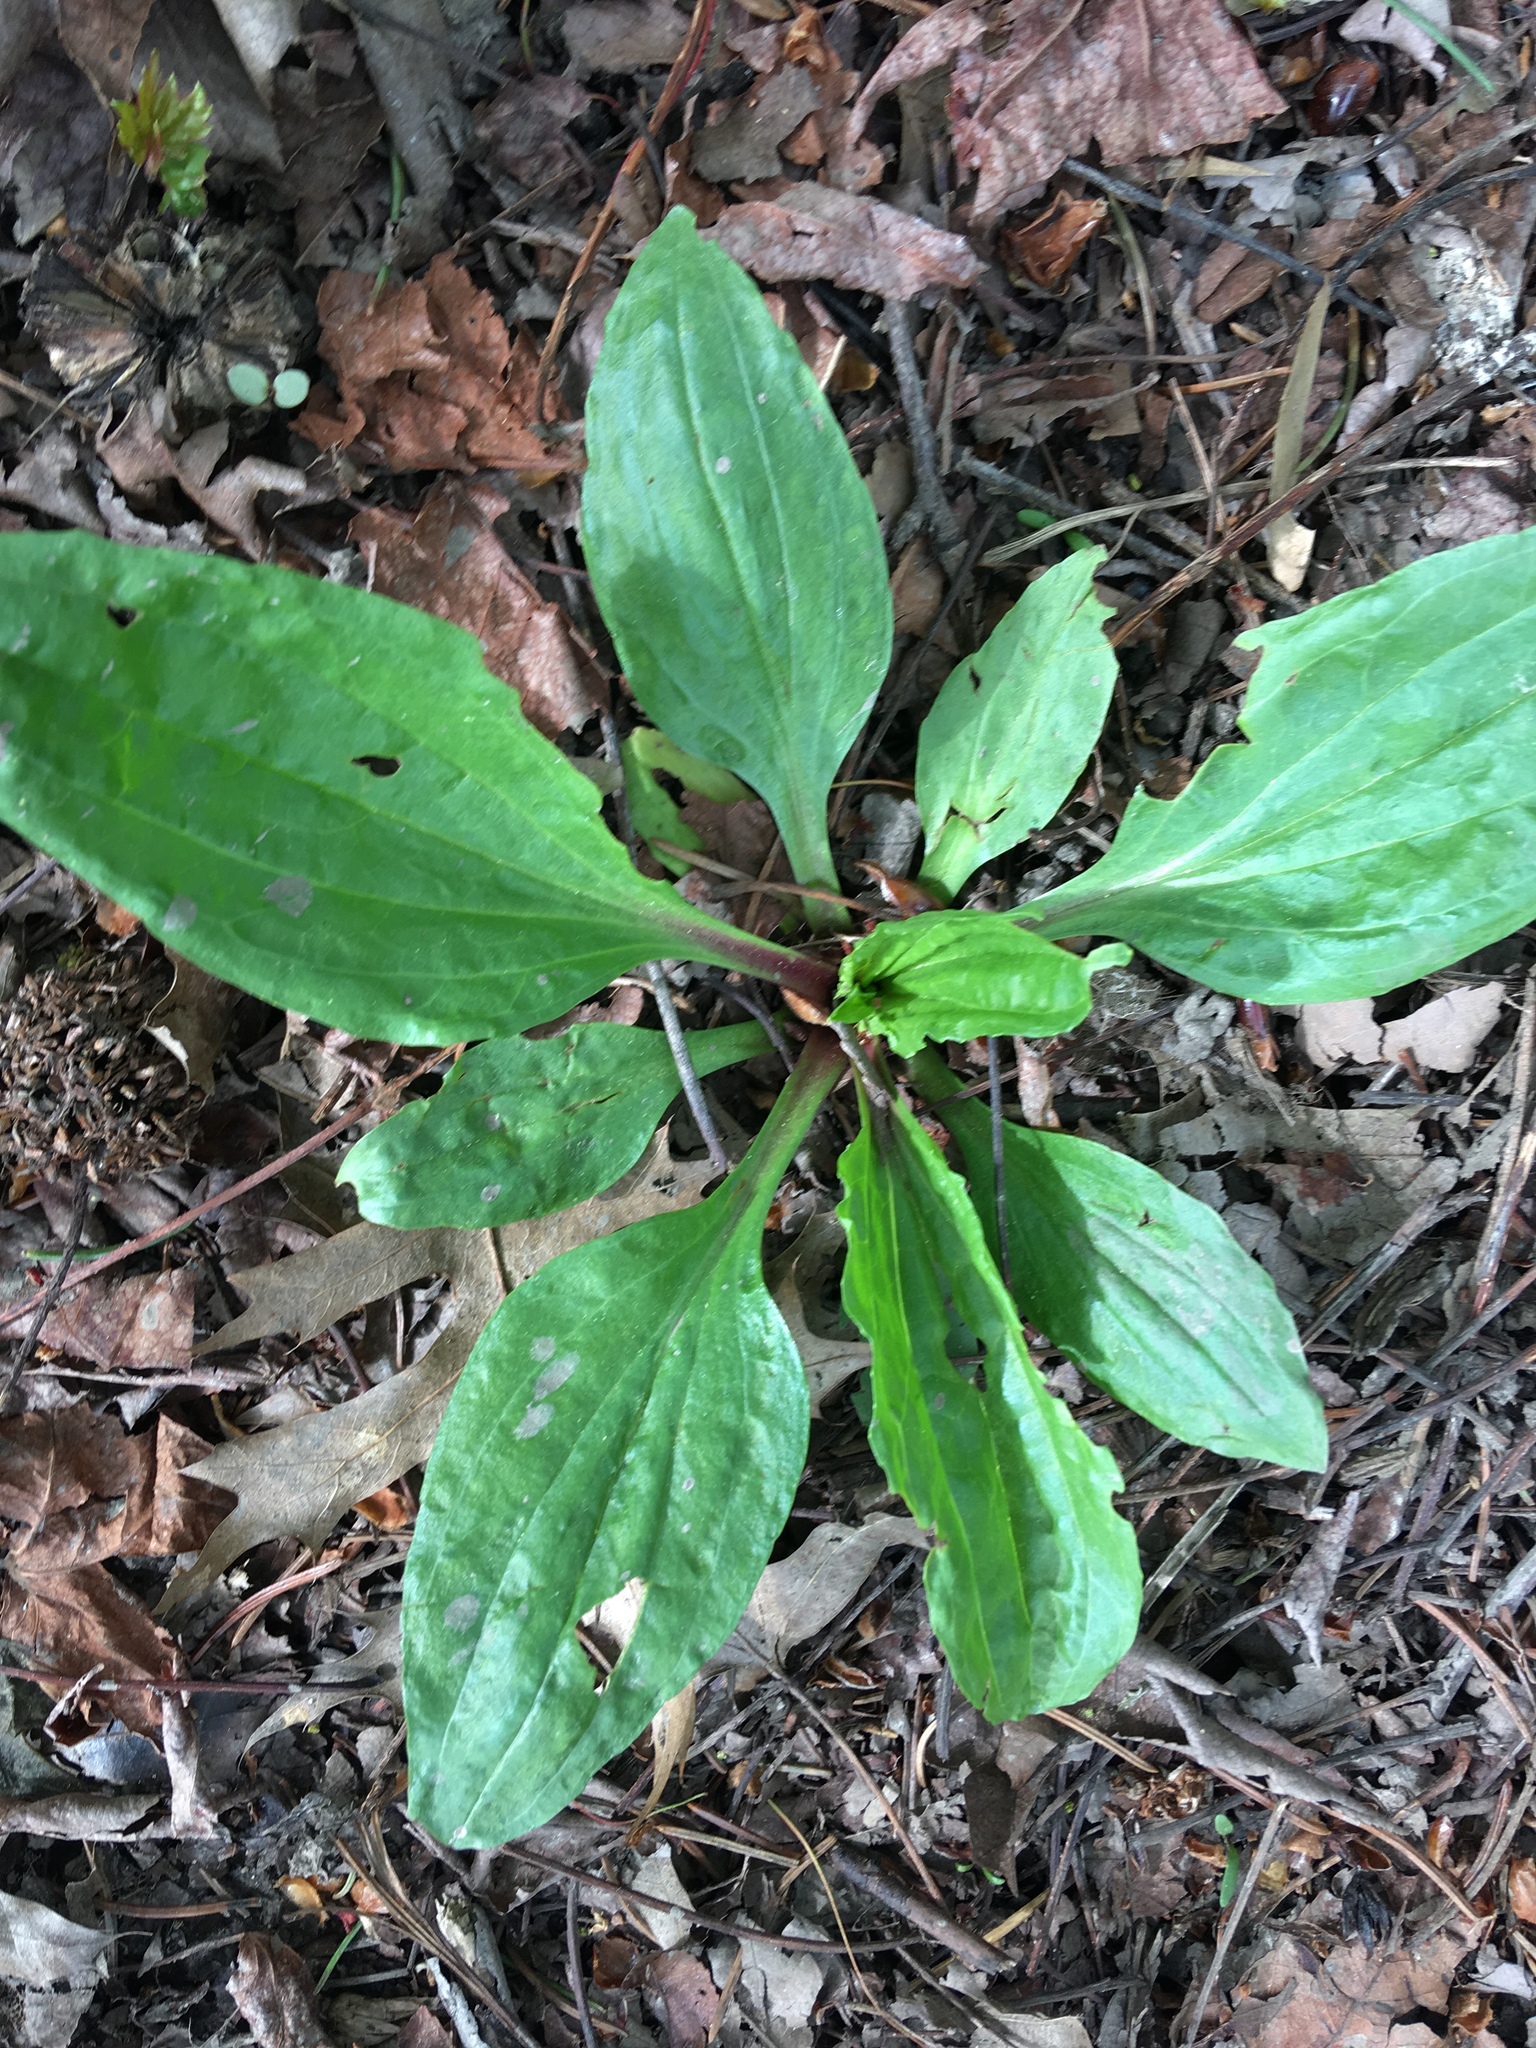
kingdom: Plantae
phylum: Tracheophyta
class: Magnoliopsida
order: Lamiales
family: Plantaginaceae
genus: Plantago
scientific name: Plantago rugelii
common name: American plantain
